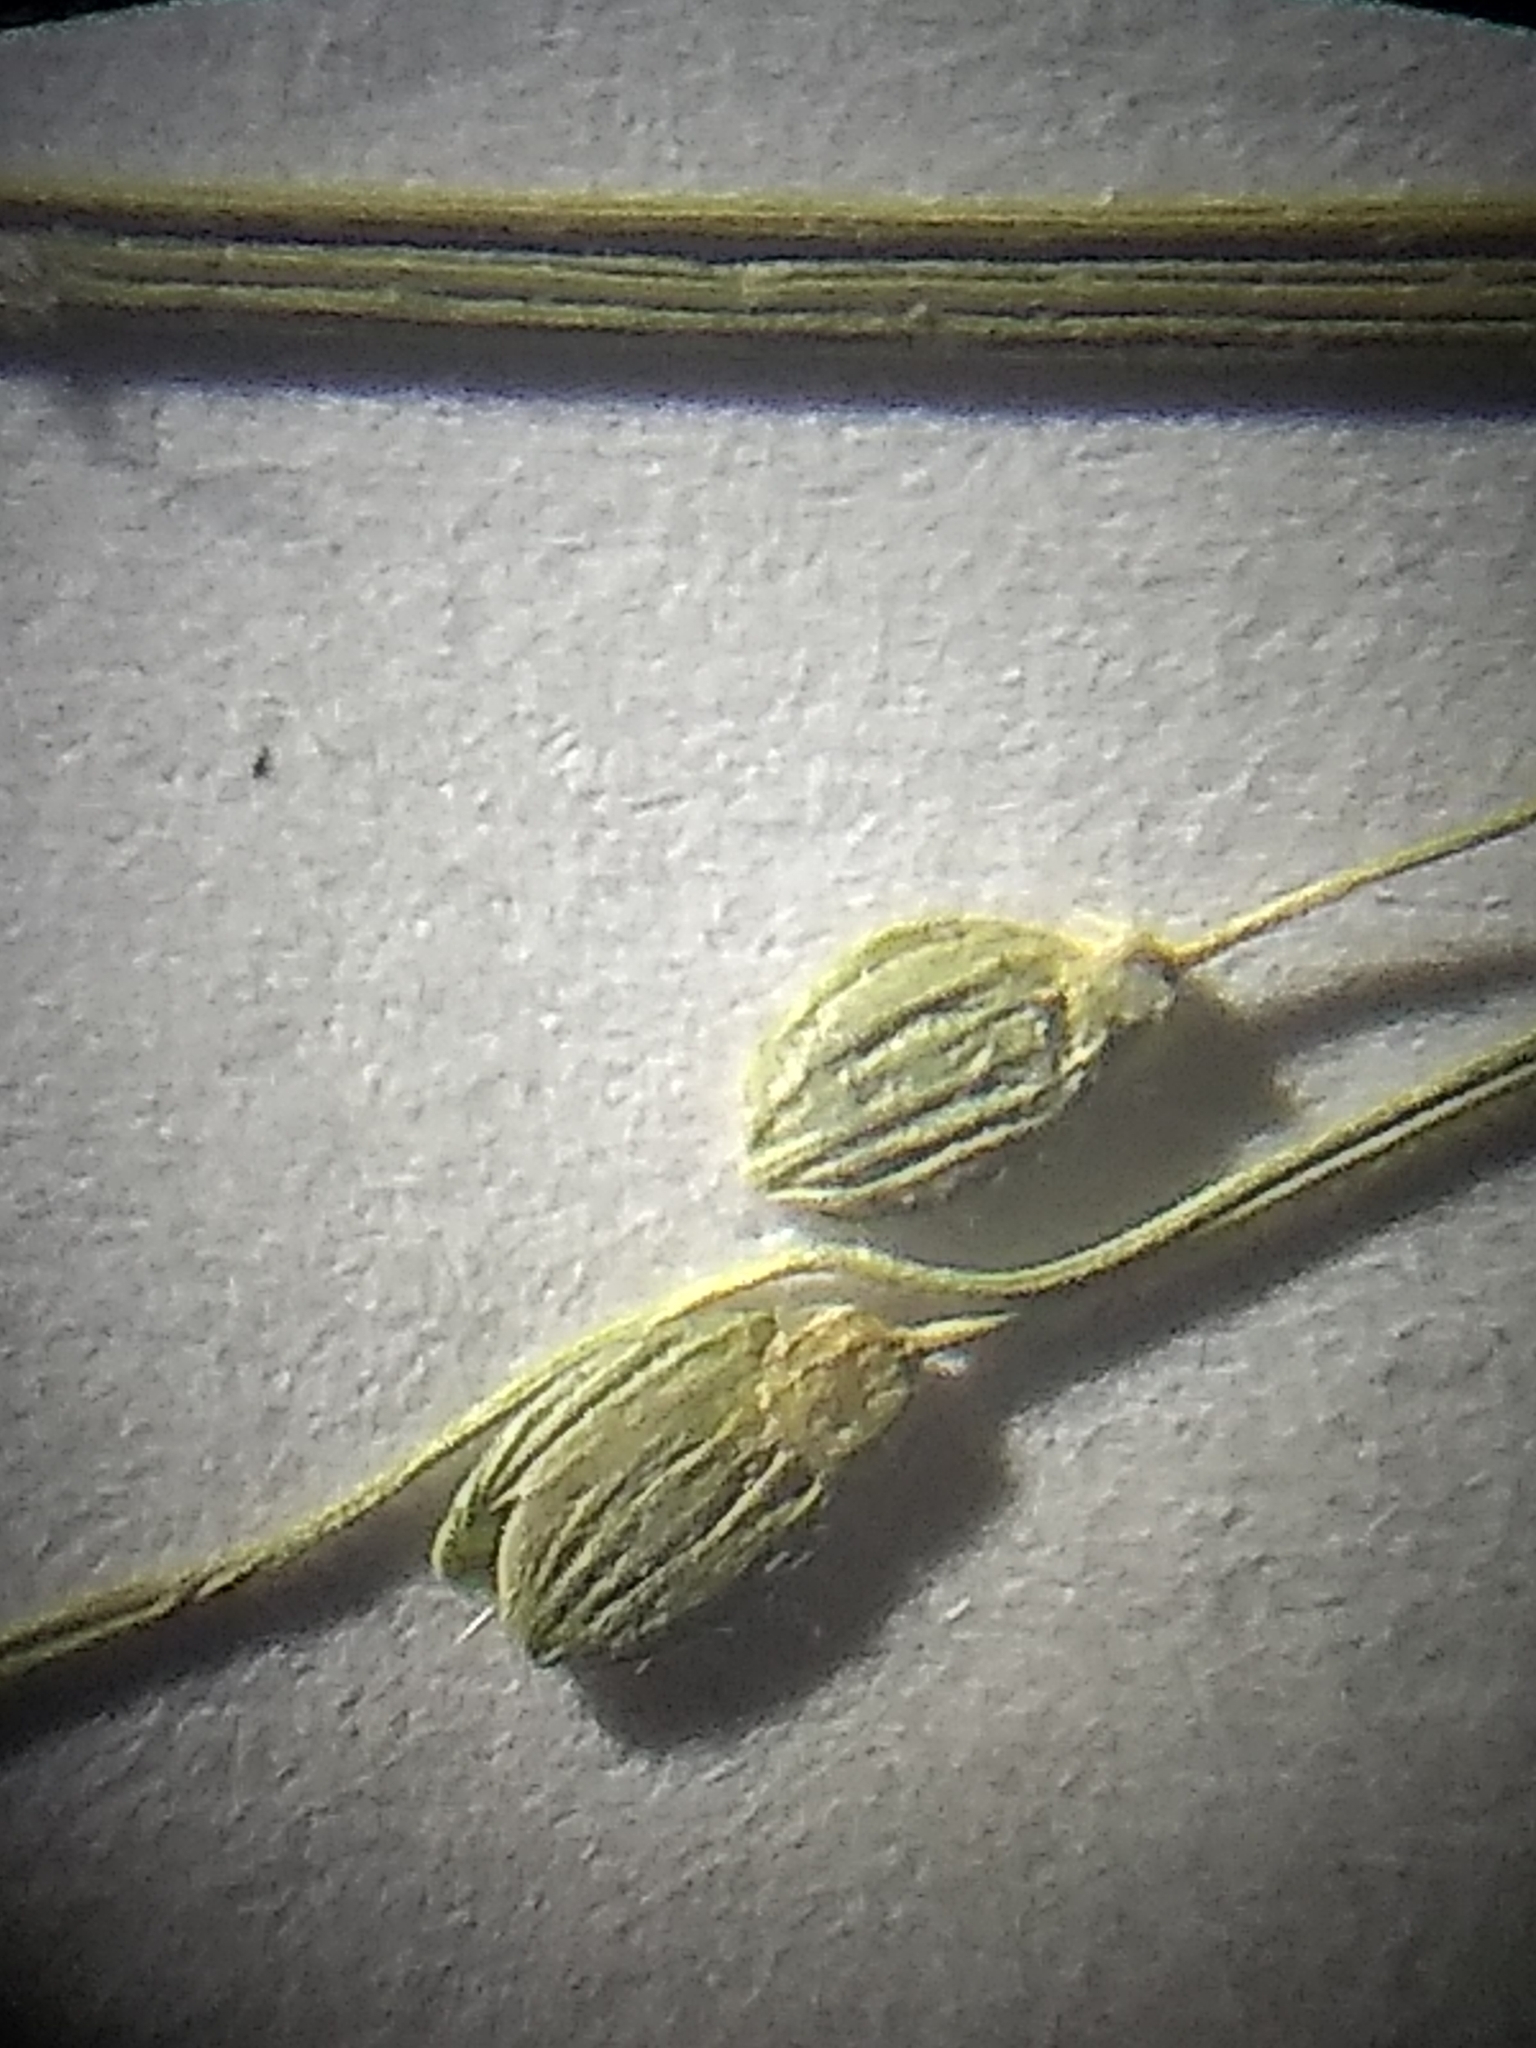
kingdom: Plantae
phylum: Tracheophyta
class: Liliopsida
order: Poales
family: Poaceae
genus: Dichanthelium
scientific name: Dichanthelium linearifolium
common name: Linear-leaved panicgrass
